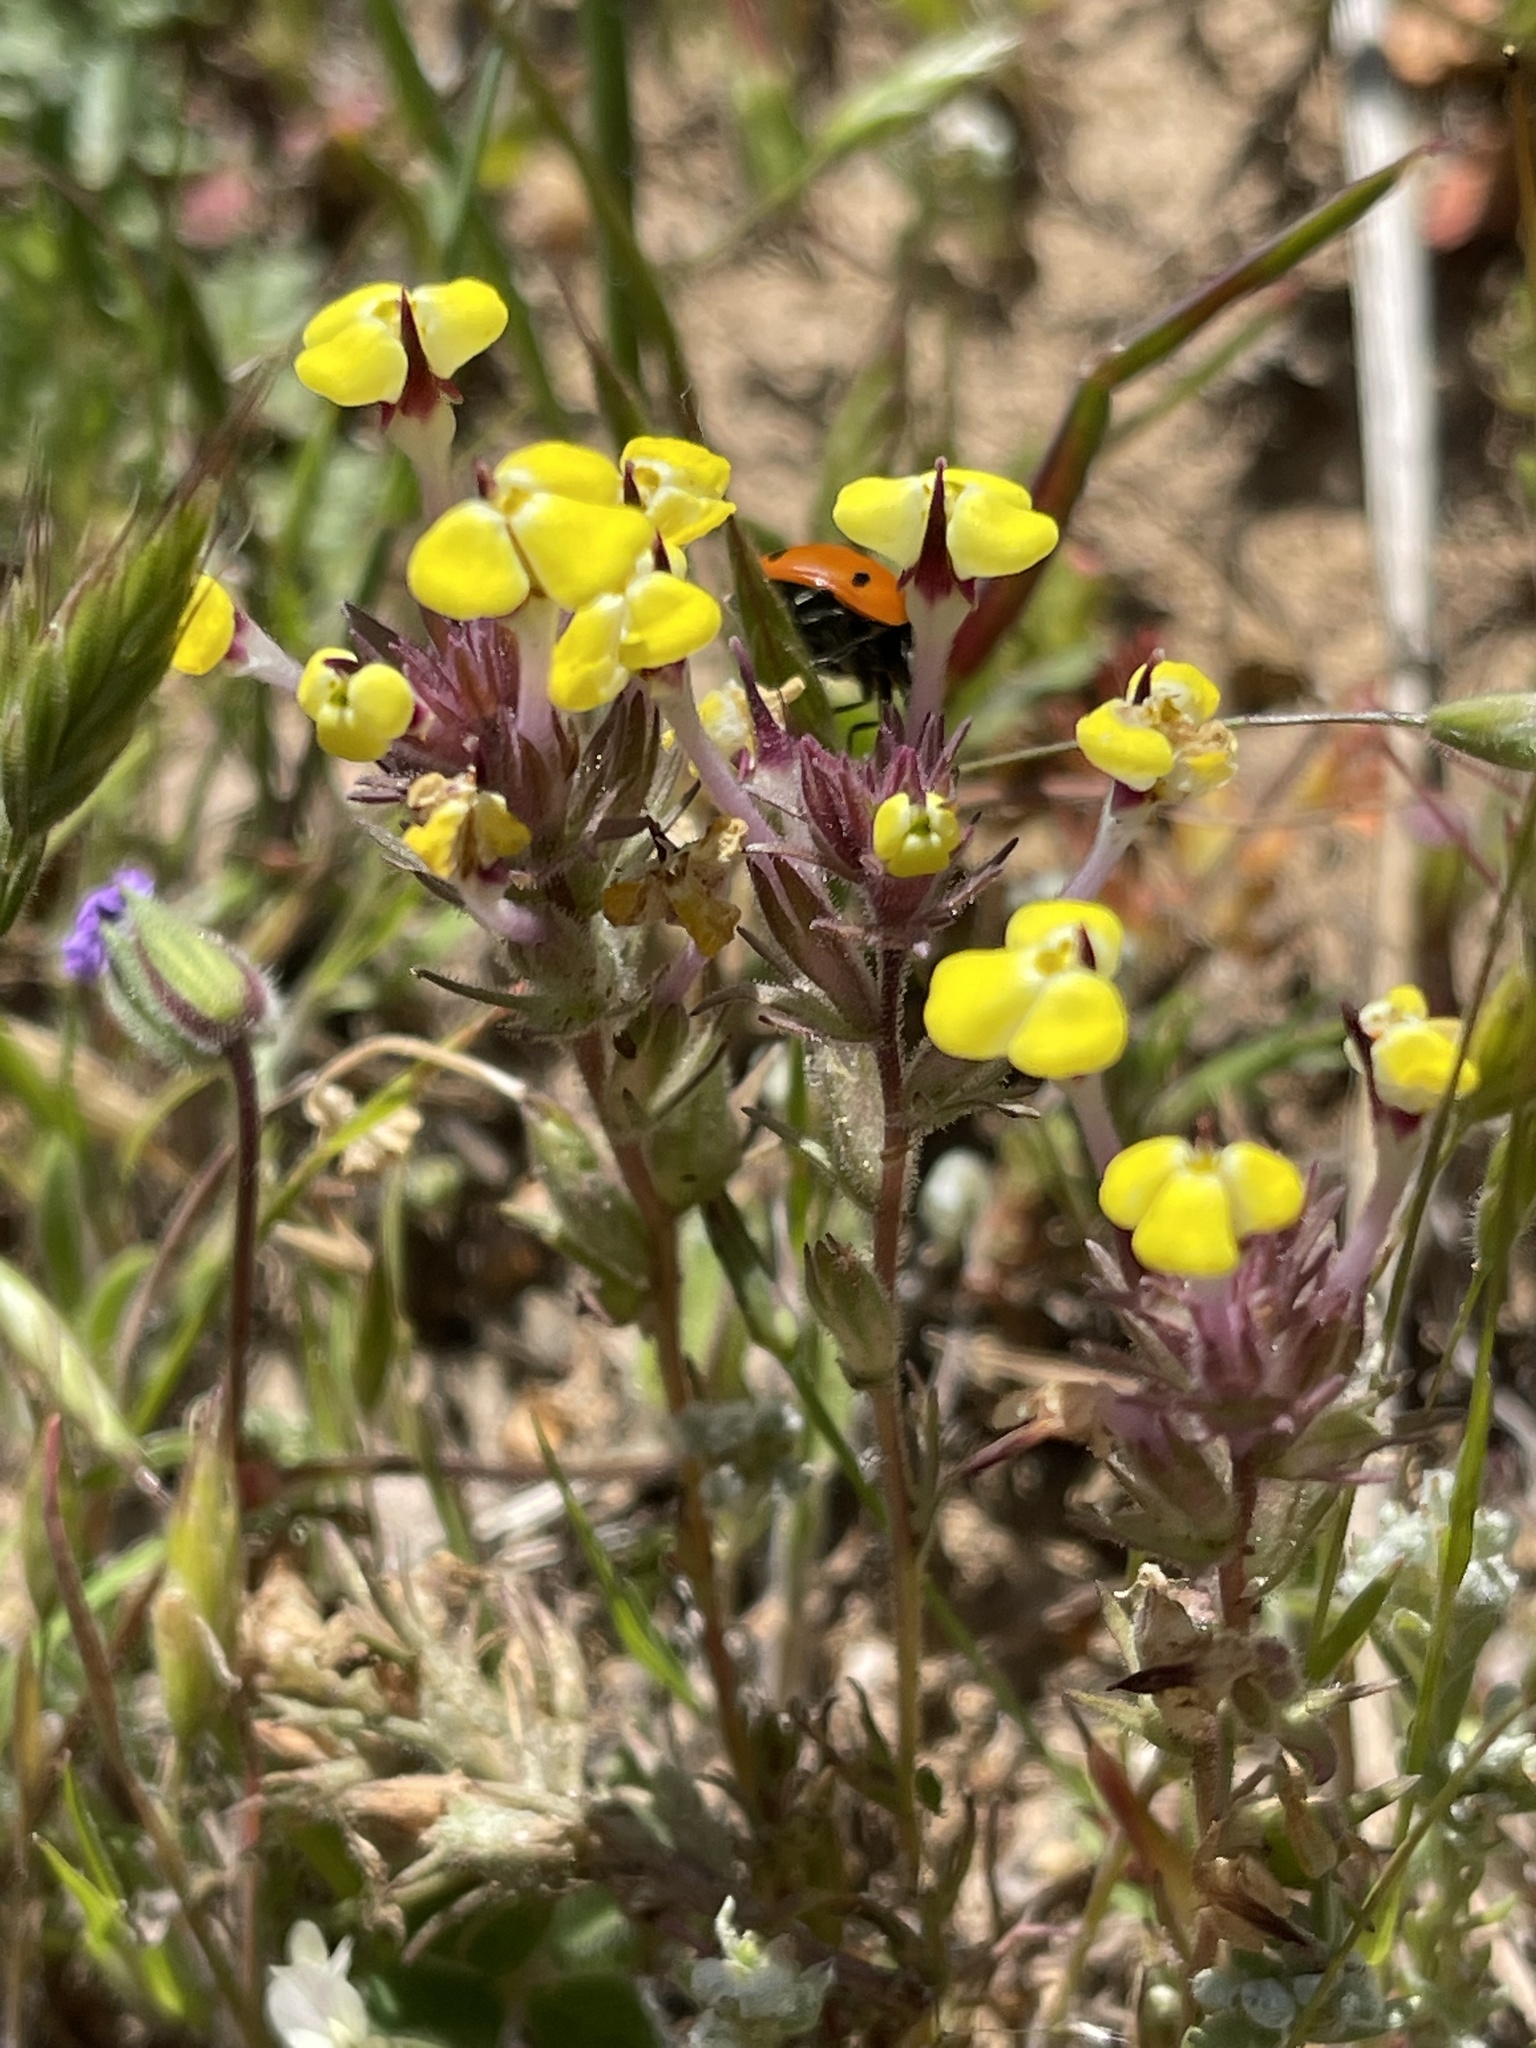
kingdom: Plantae
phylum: Tracheophyta
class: Magnoliopsida
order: Lamiales
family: Orobanchaceae
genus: Triphysaria
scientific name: Triphysaria eriantha
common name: Johnny-tuck
